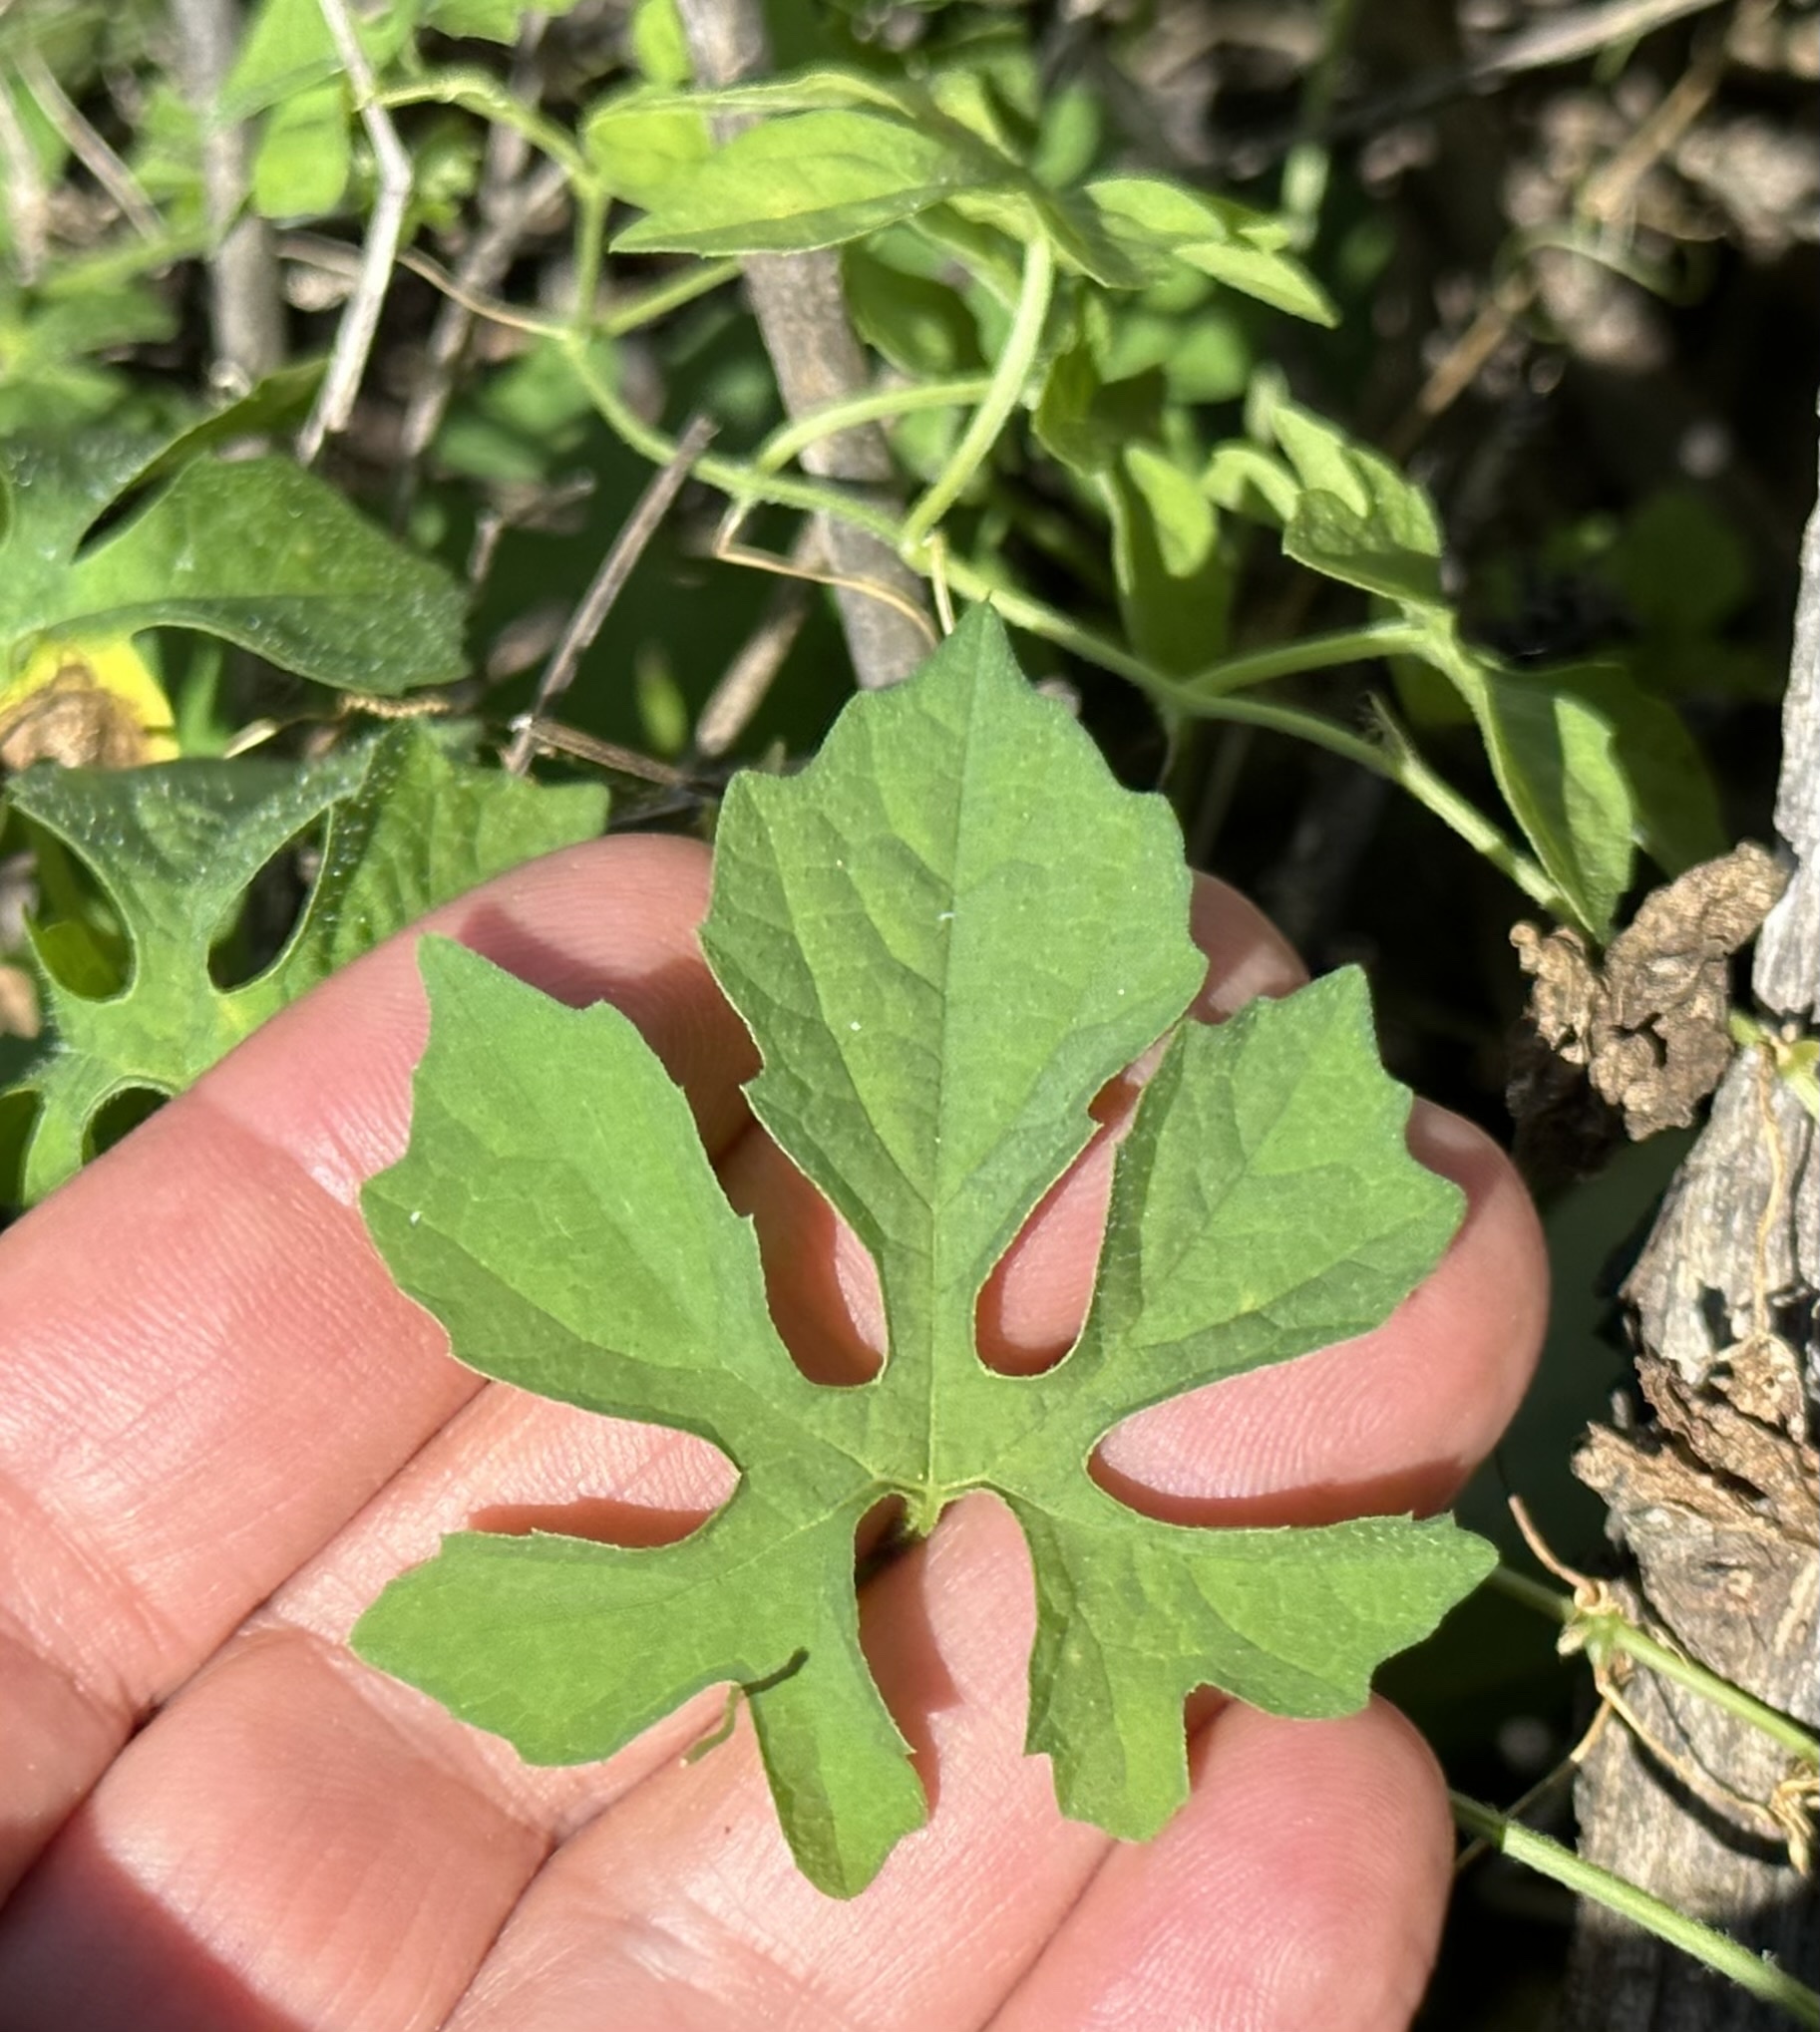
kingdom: Plantae
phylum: Tracheophyta
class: Magnoliopsida
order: Cucurbitales
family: Cucurbitaceae
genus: Momordica
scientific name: Momordica charantia
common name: Balsampear
